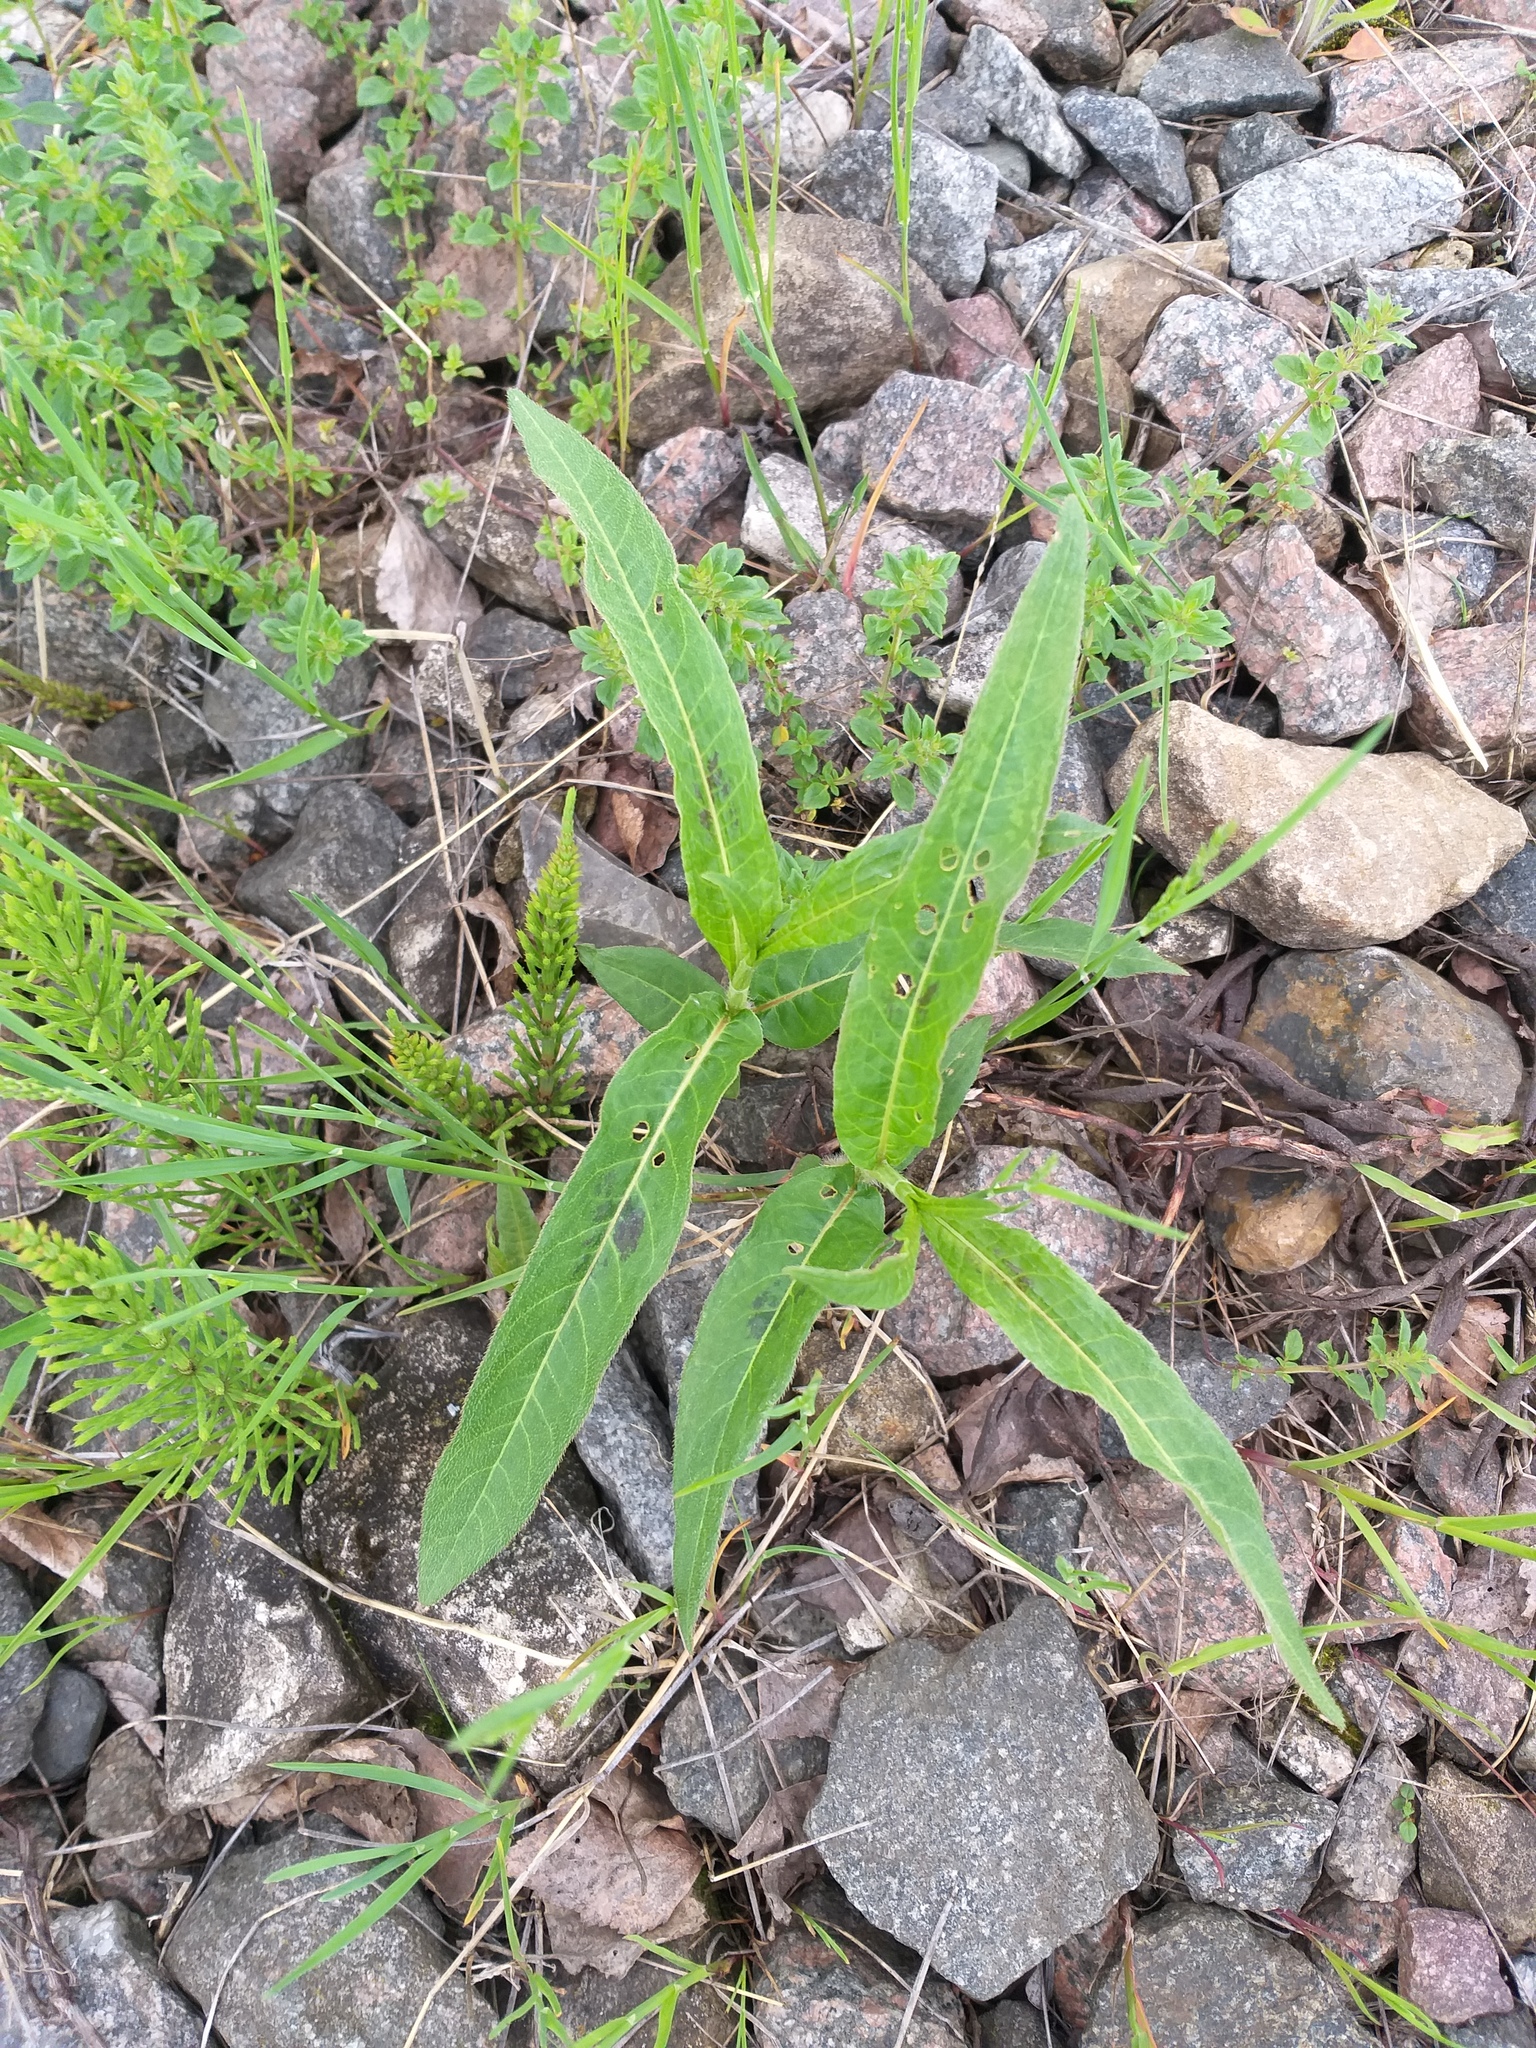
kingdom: Plantae
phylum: Tracheophyta
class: Magnoliopsida
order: Caryophyllales
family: Polygonaceae
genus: Persicaria
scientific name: Persicaria amphibia
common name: Amphibious bistort
